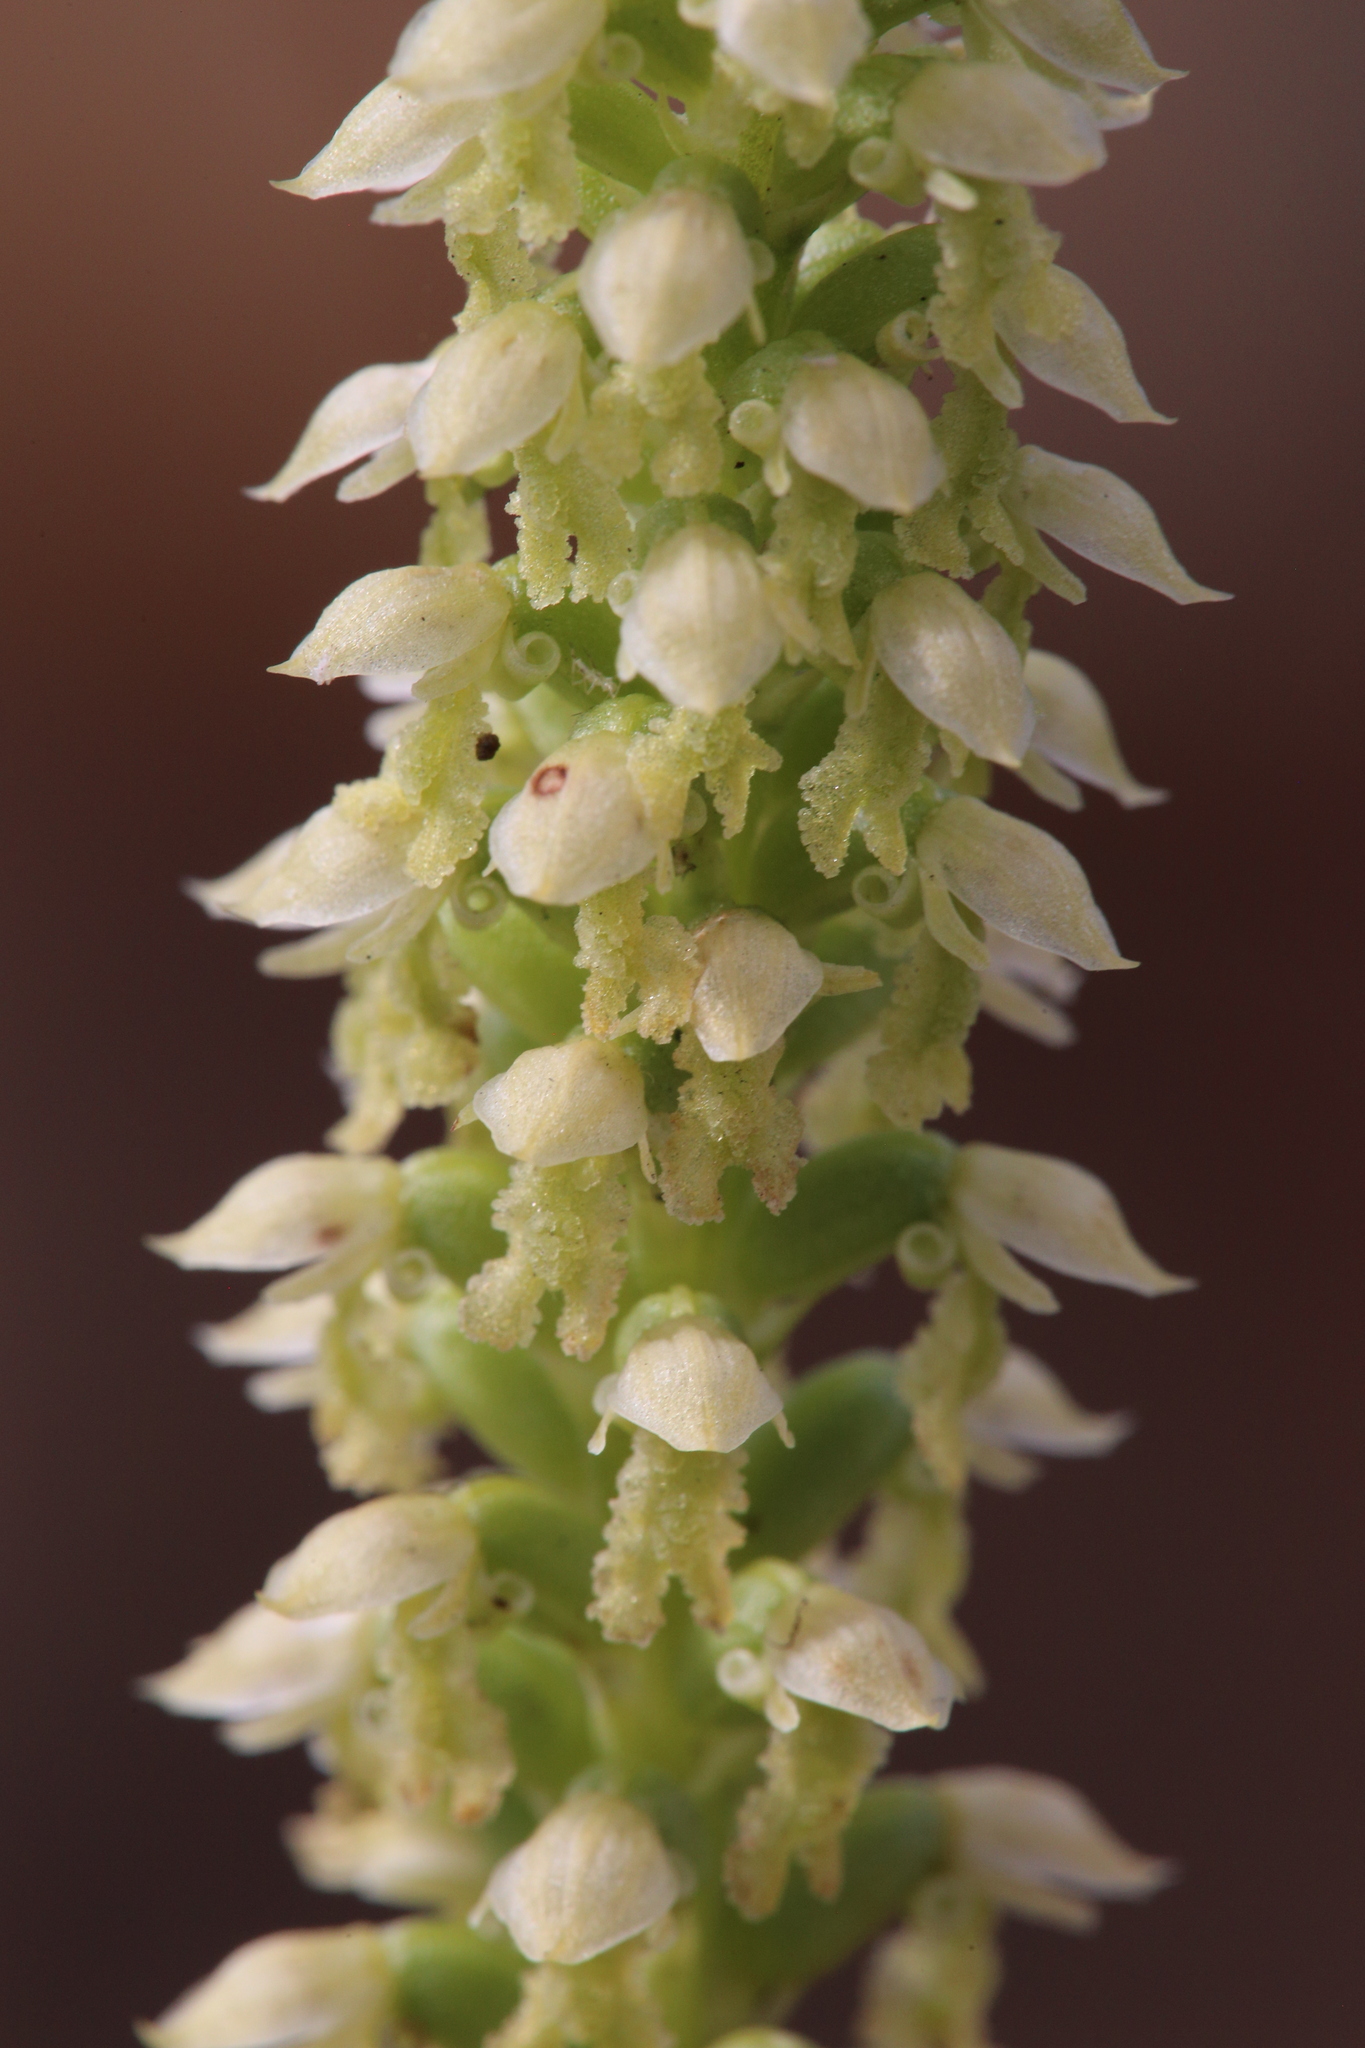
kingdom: Plantae
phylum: Tracheophyta
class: Liliopsida
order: Asparagales
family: Orchidaceae
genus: Microtis
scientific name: Microtis alba
